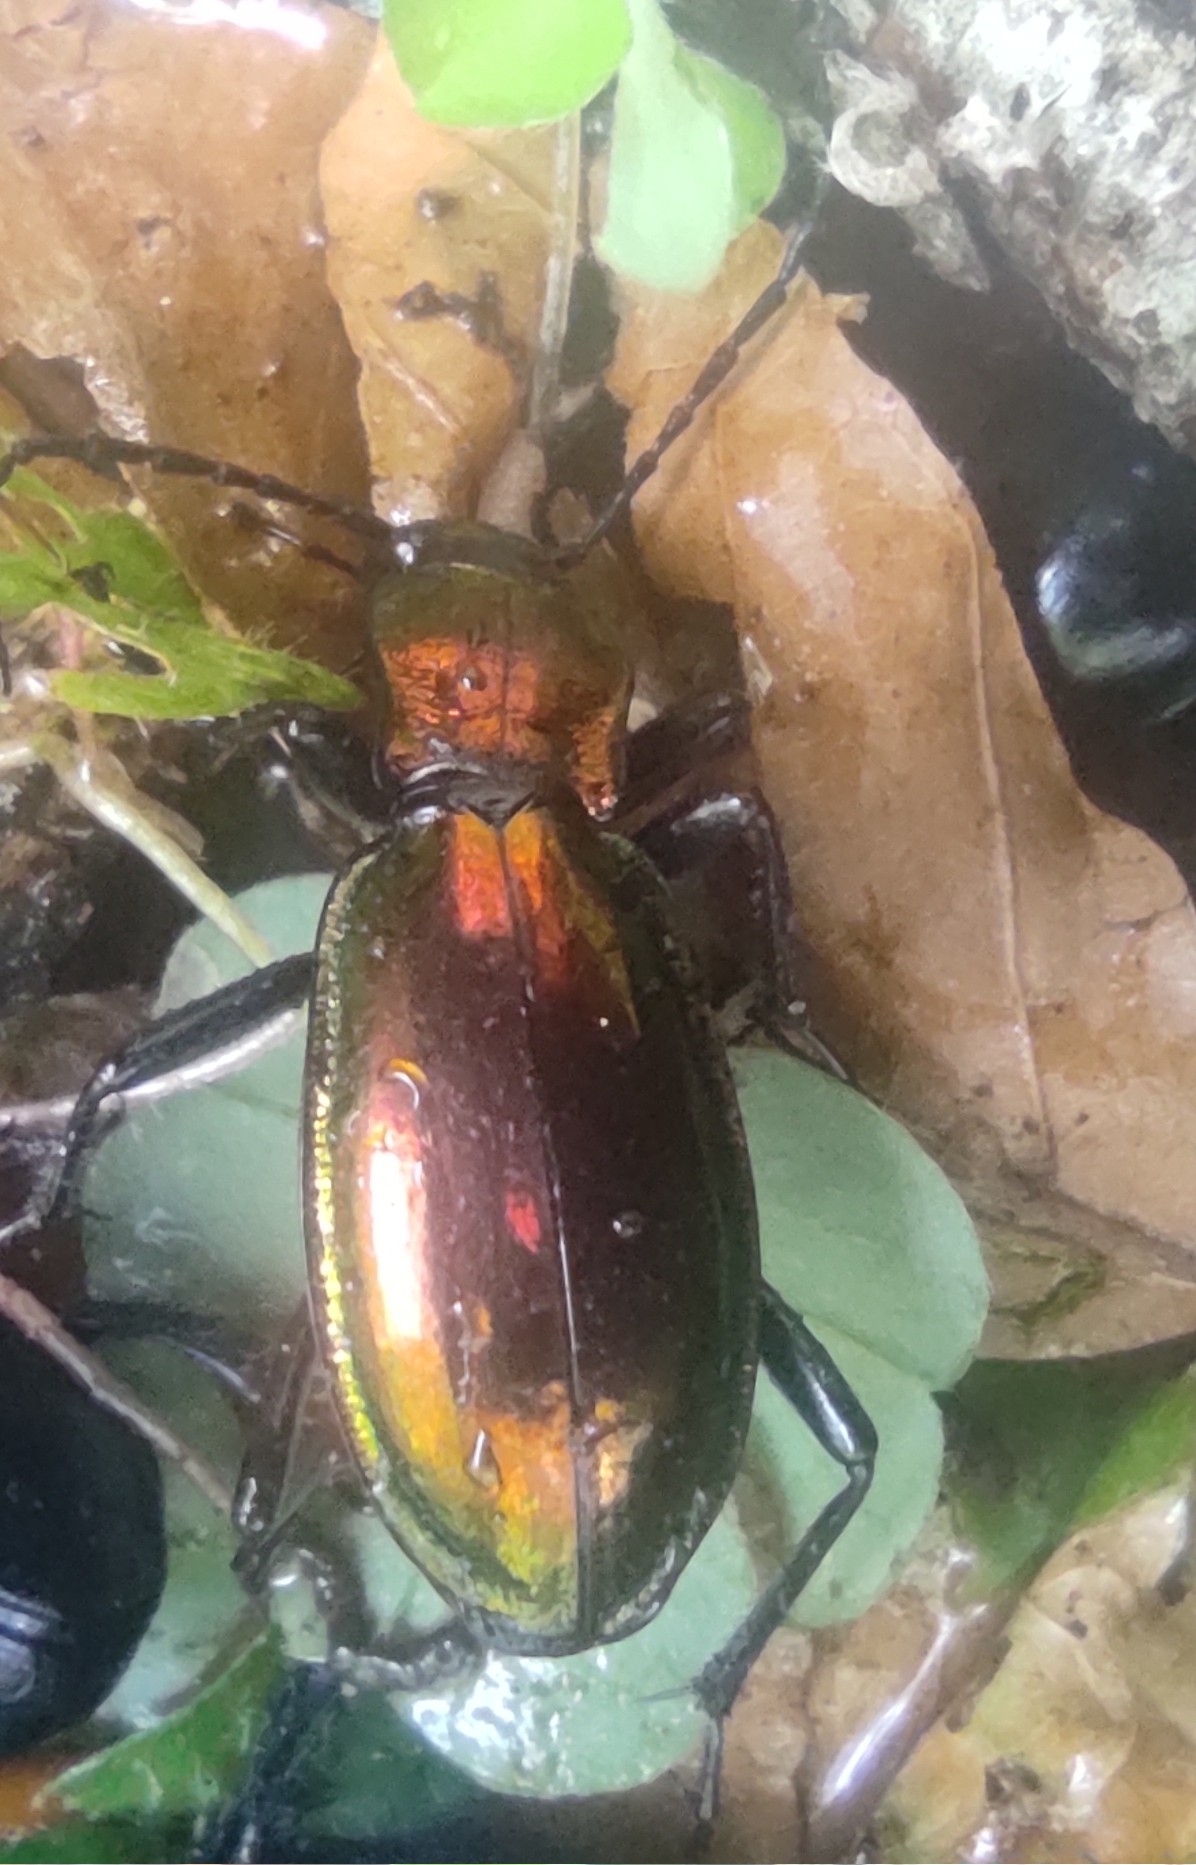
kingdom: Animalia
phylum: Arthropoda
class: Insecta
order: Coleoptera
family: Carabidae
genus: Carabus
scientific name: Carabus splendens
